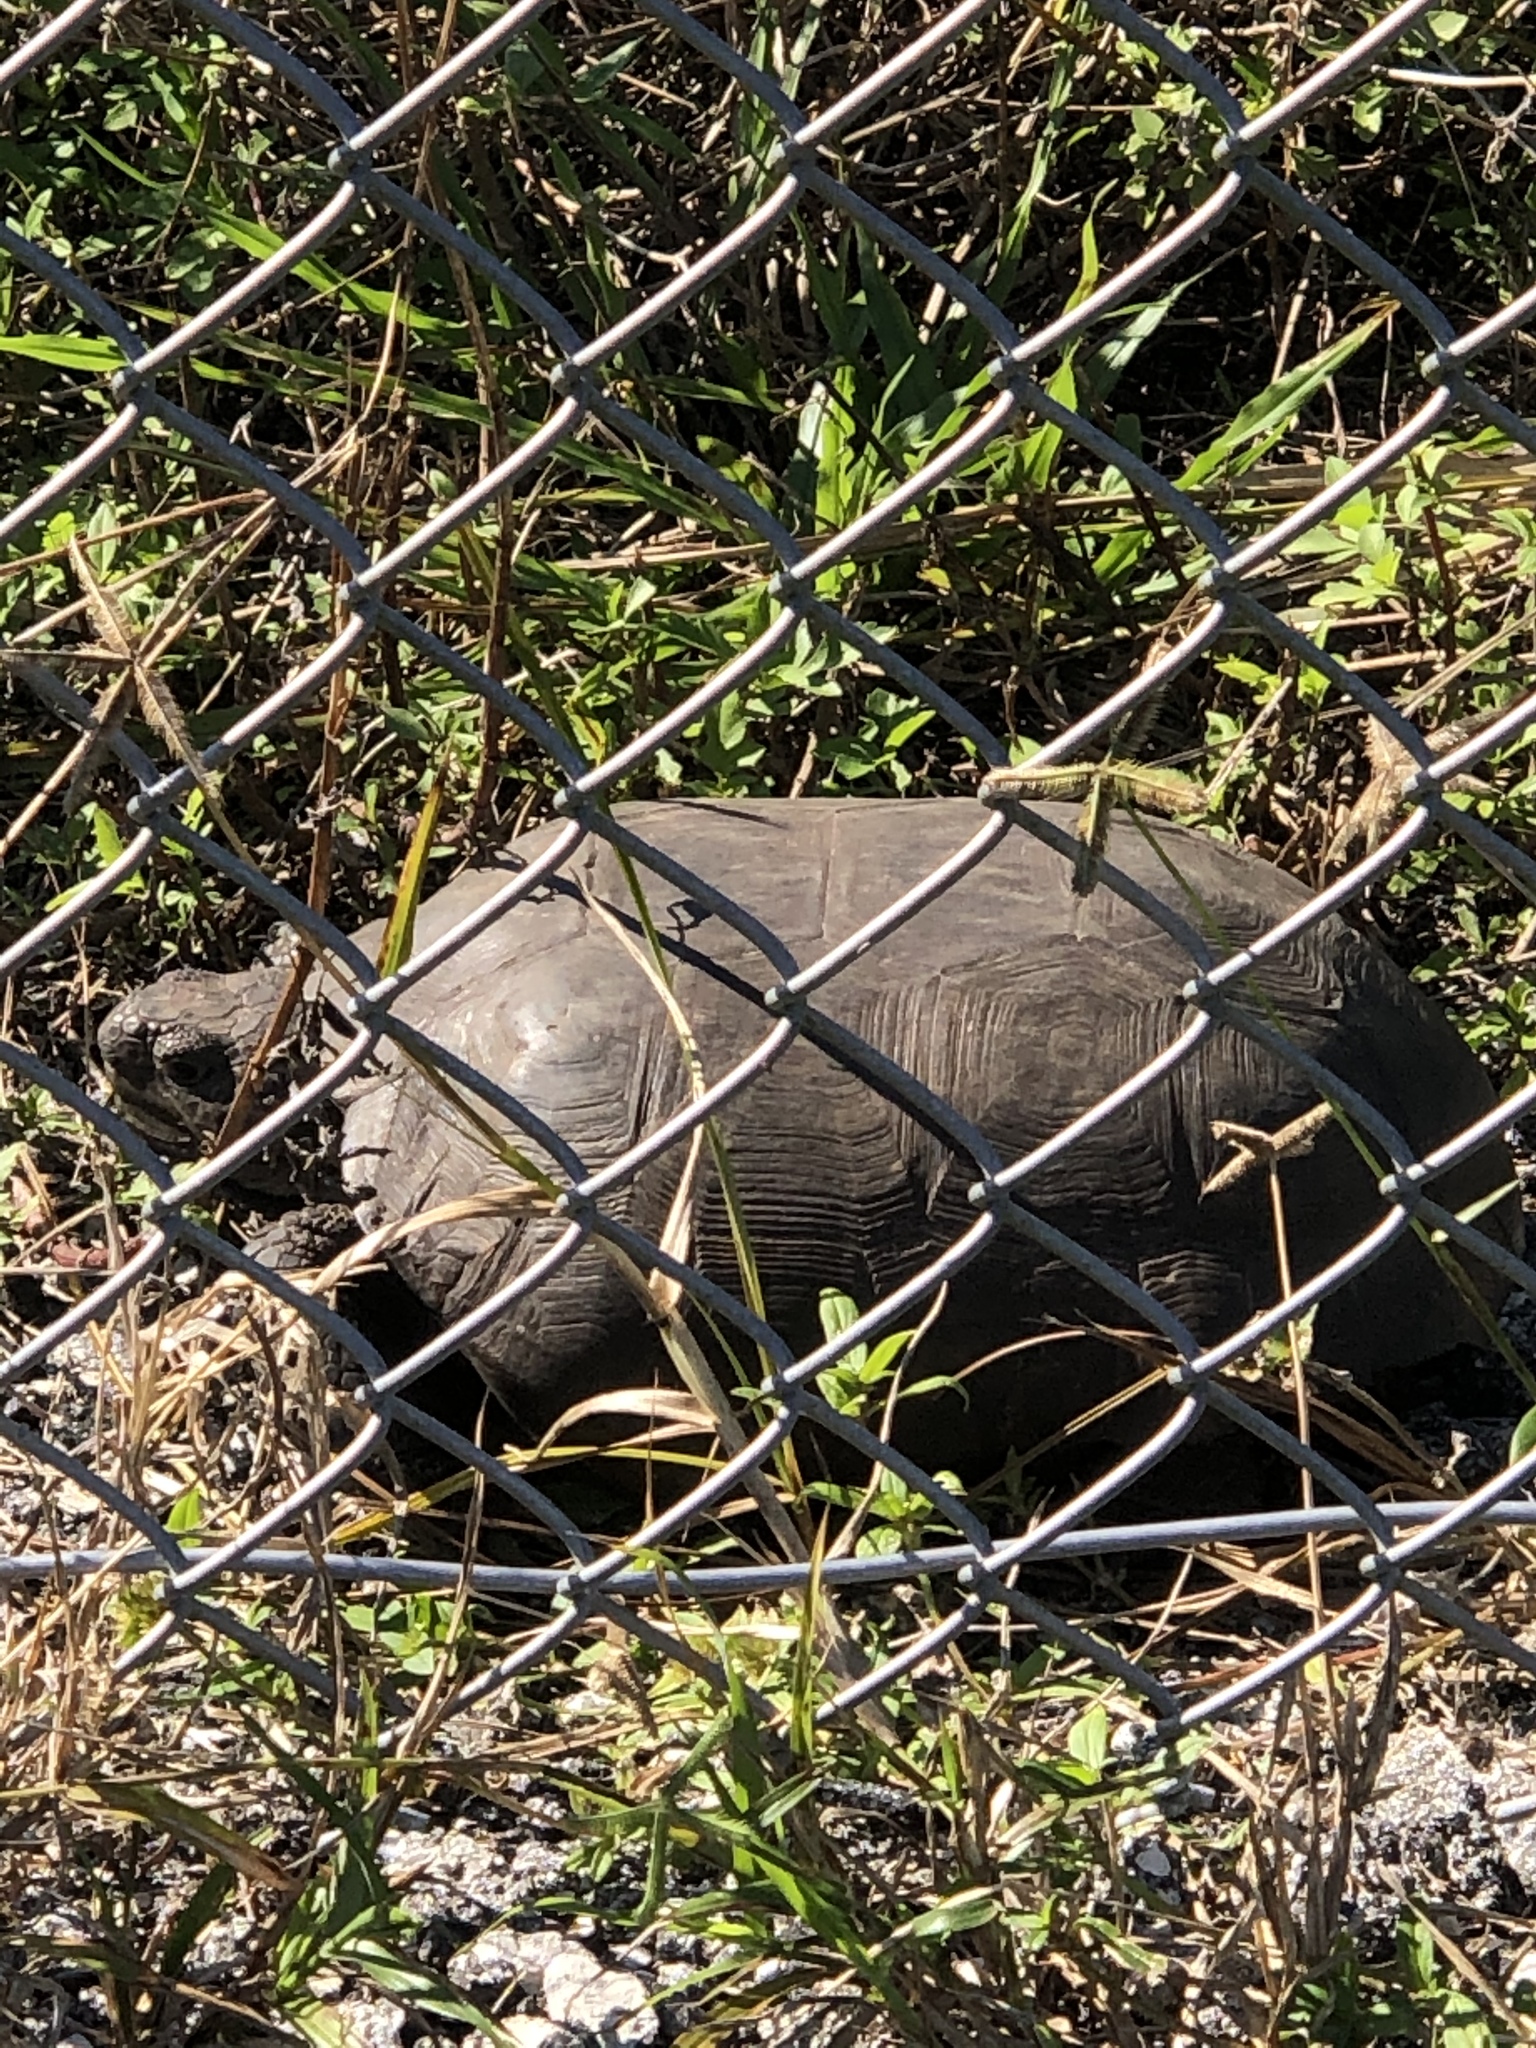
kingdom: Animalia
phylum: Chordata
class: Testudines
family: Testudinidae
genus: Gopherus
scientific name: Gopherus polyphemus
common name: Florida gopher tortoise
